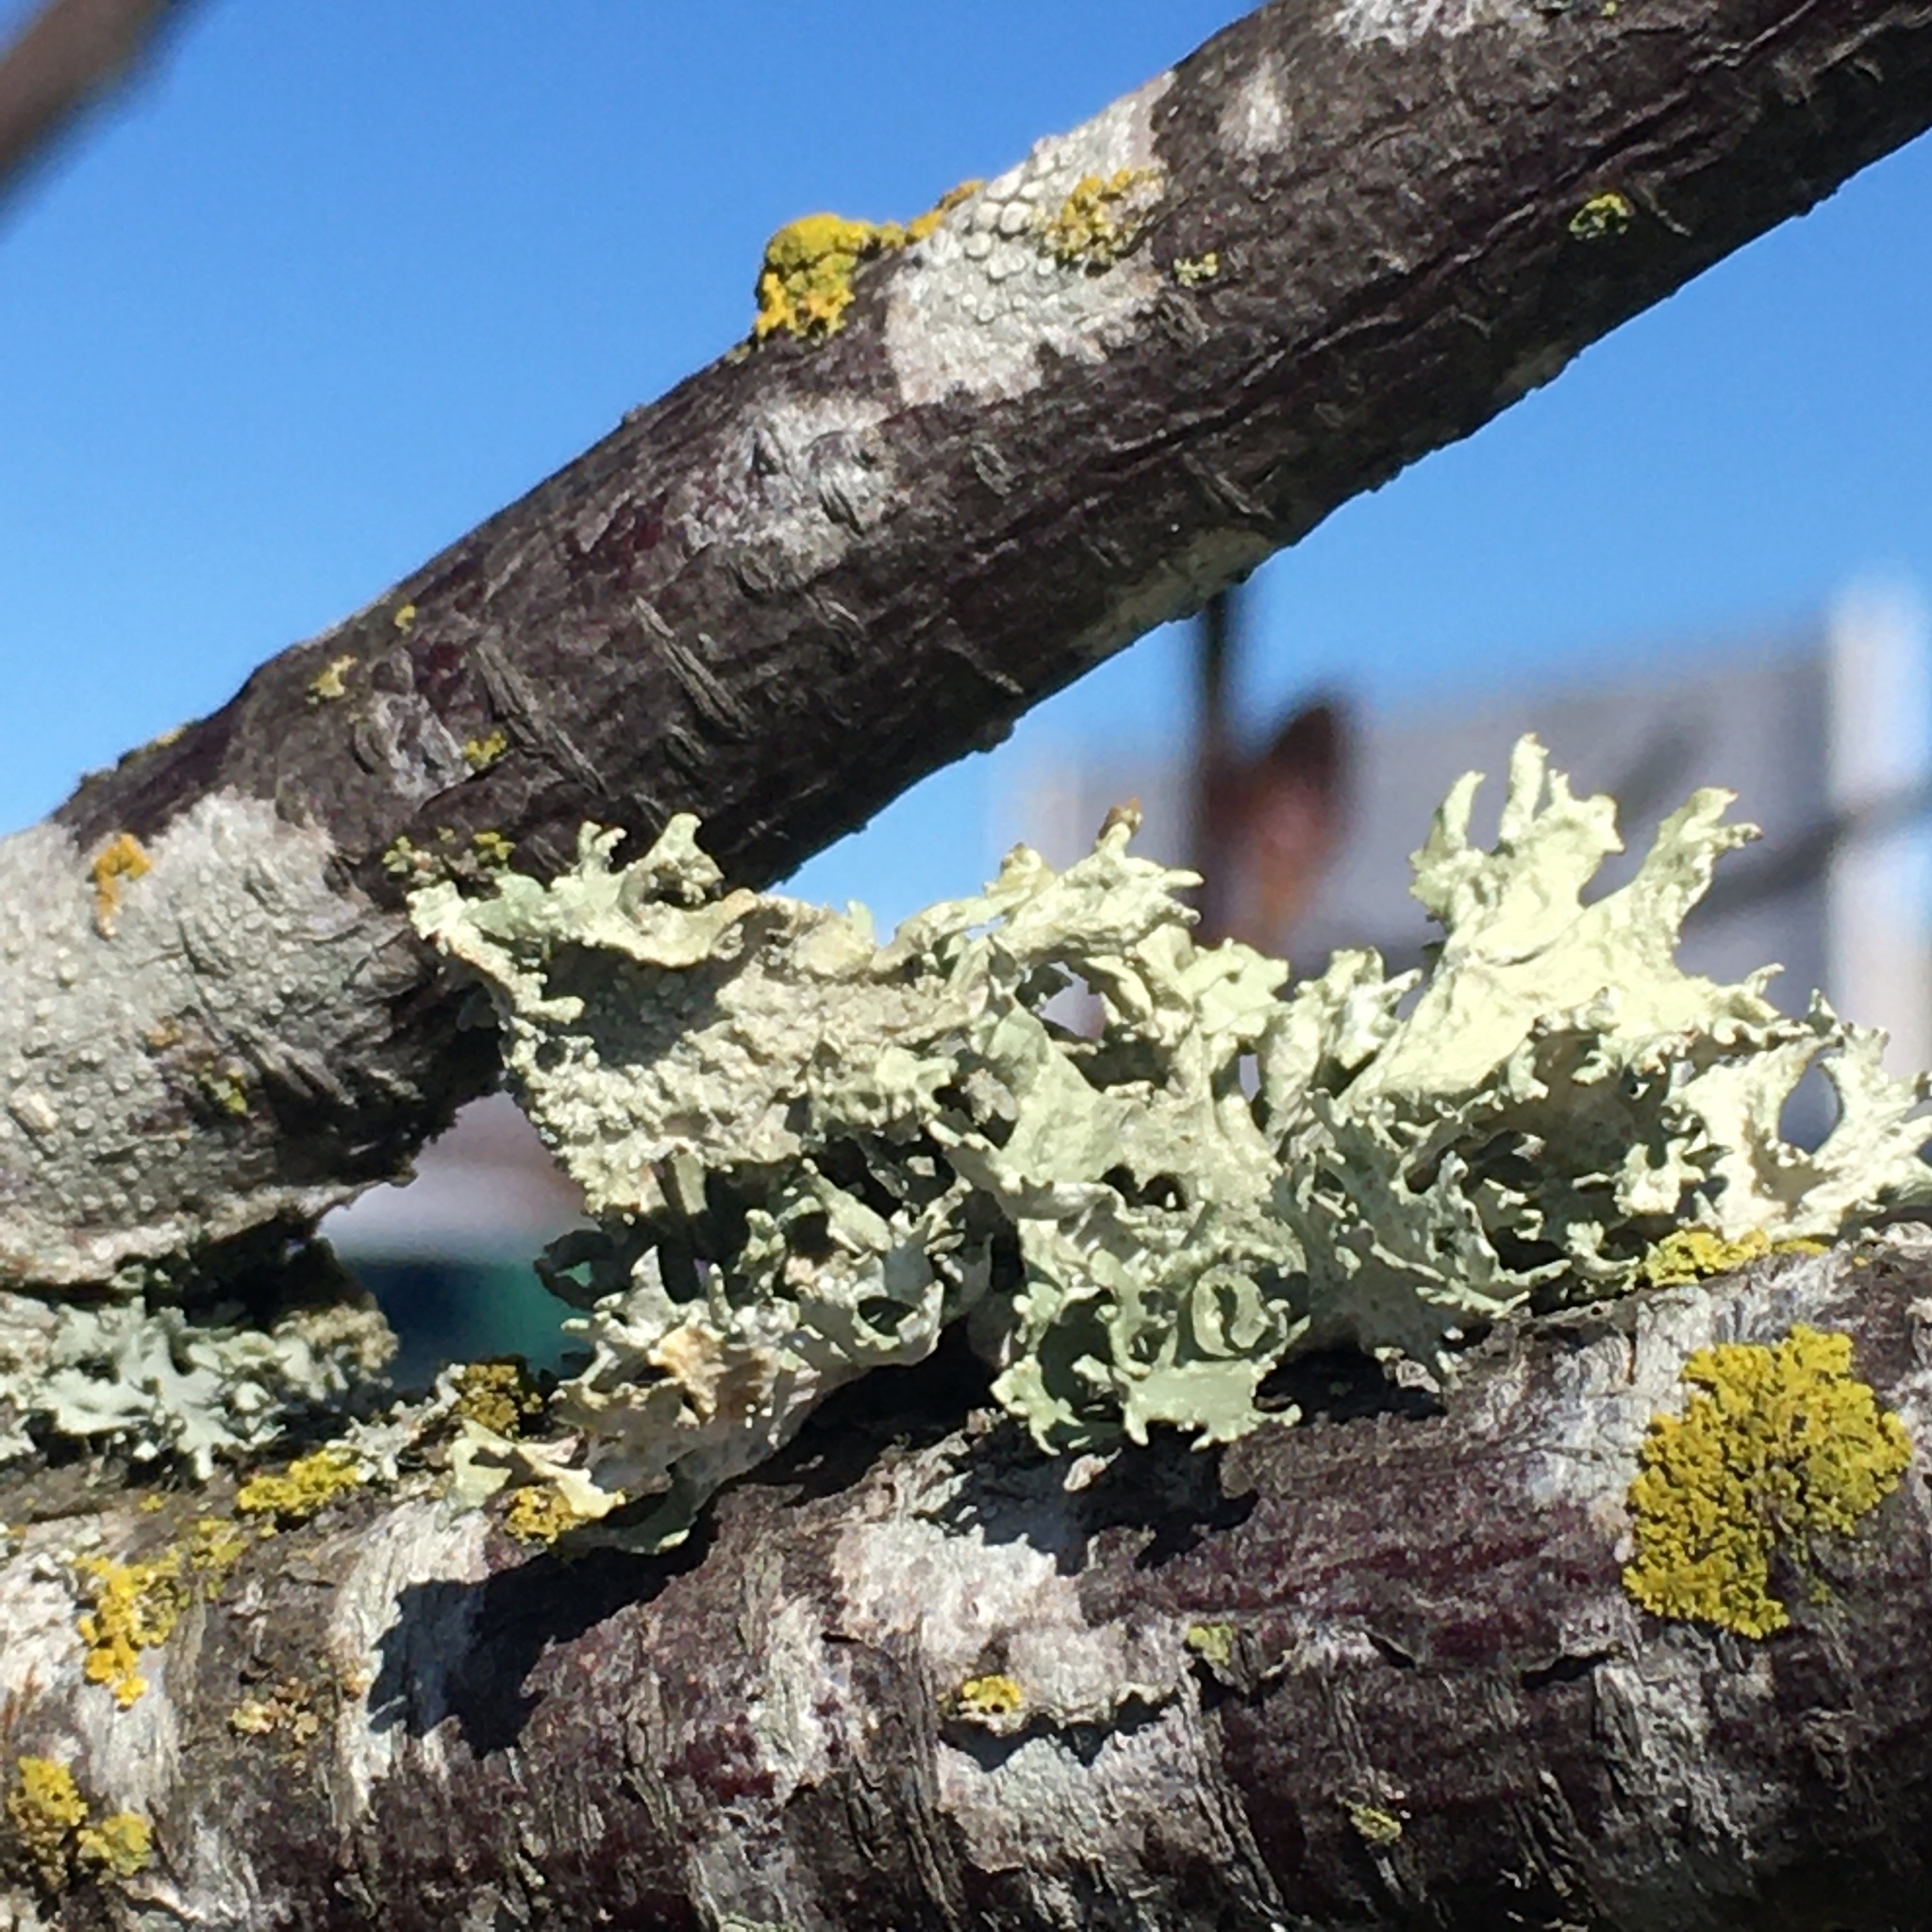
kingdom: Fungi
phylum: Ascomycota
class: Lecanoromycetes
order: Lecanorales
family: Parmeliaceae
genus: Evernia
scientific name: Evernia prunastri
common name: Oak moss
